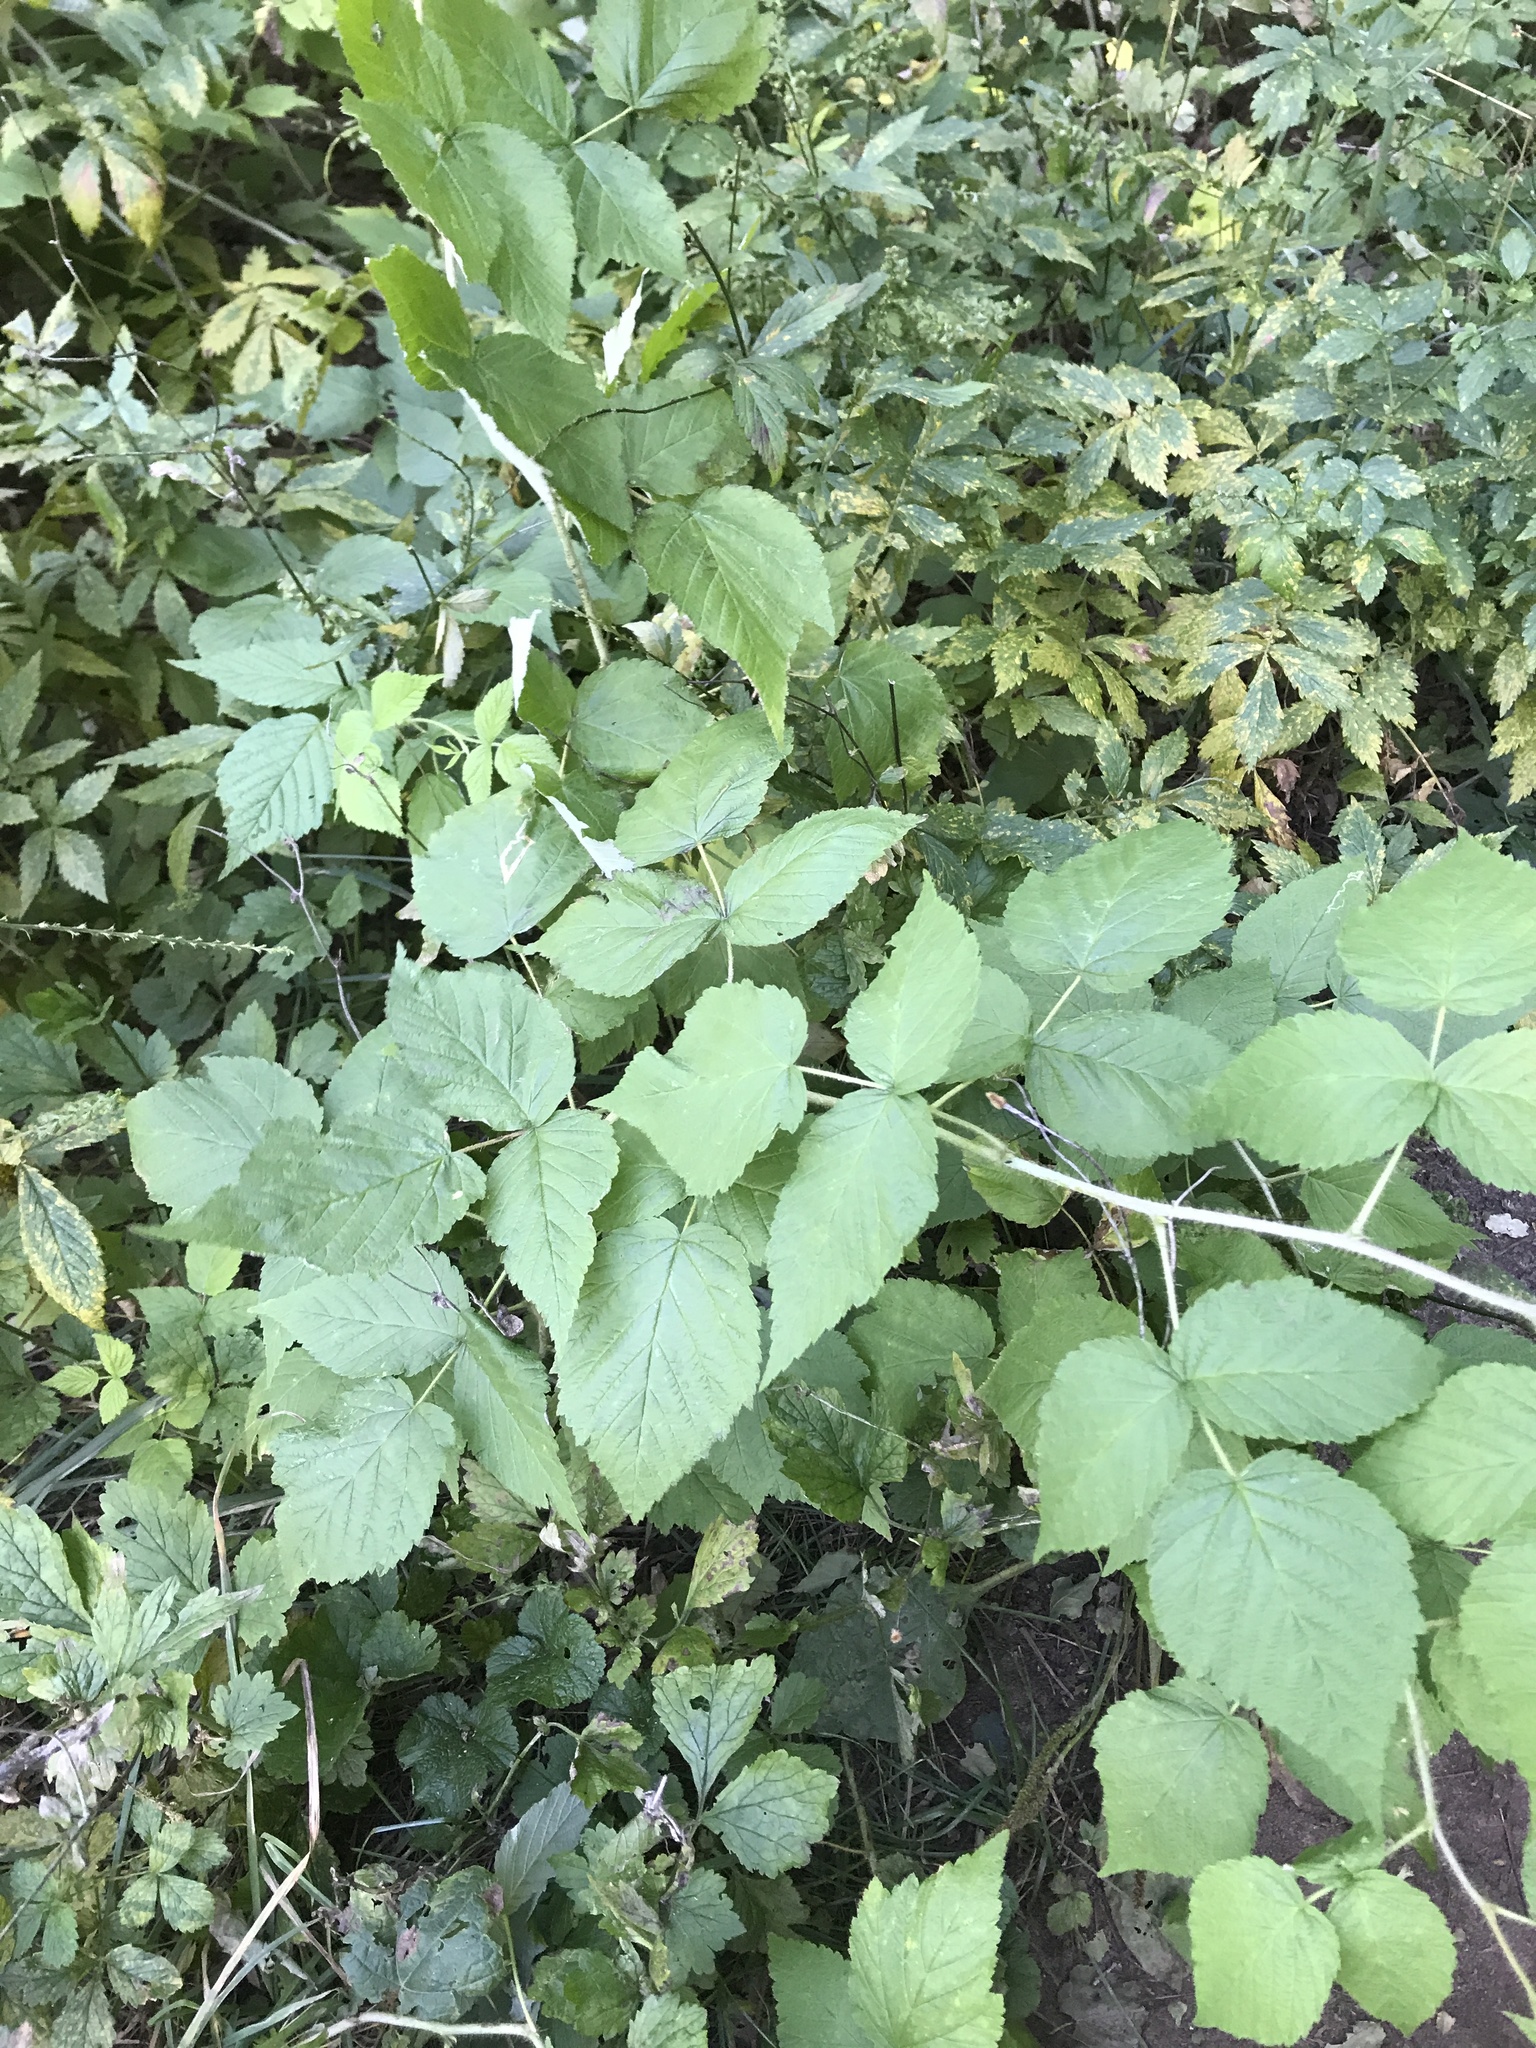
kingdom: Plantae
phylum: Tracheophyta
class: Magnoliopsida
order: Rosales
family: Rosaceae
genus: Rubus
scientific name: Rubus
